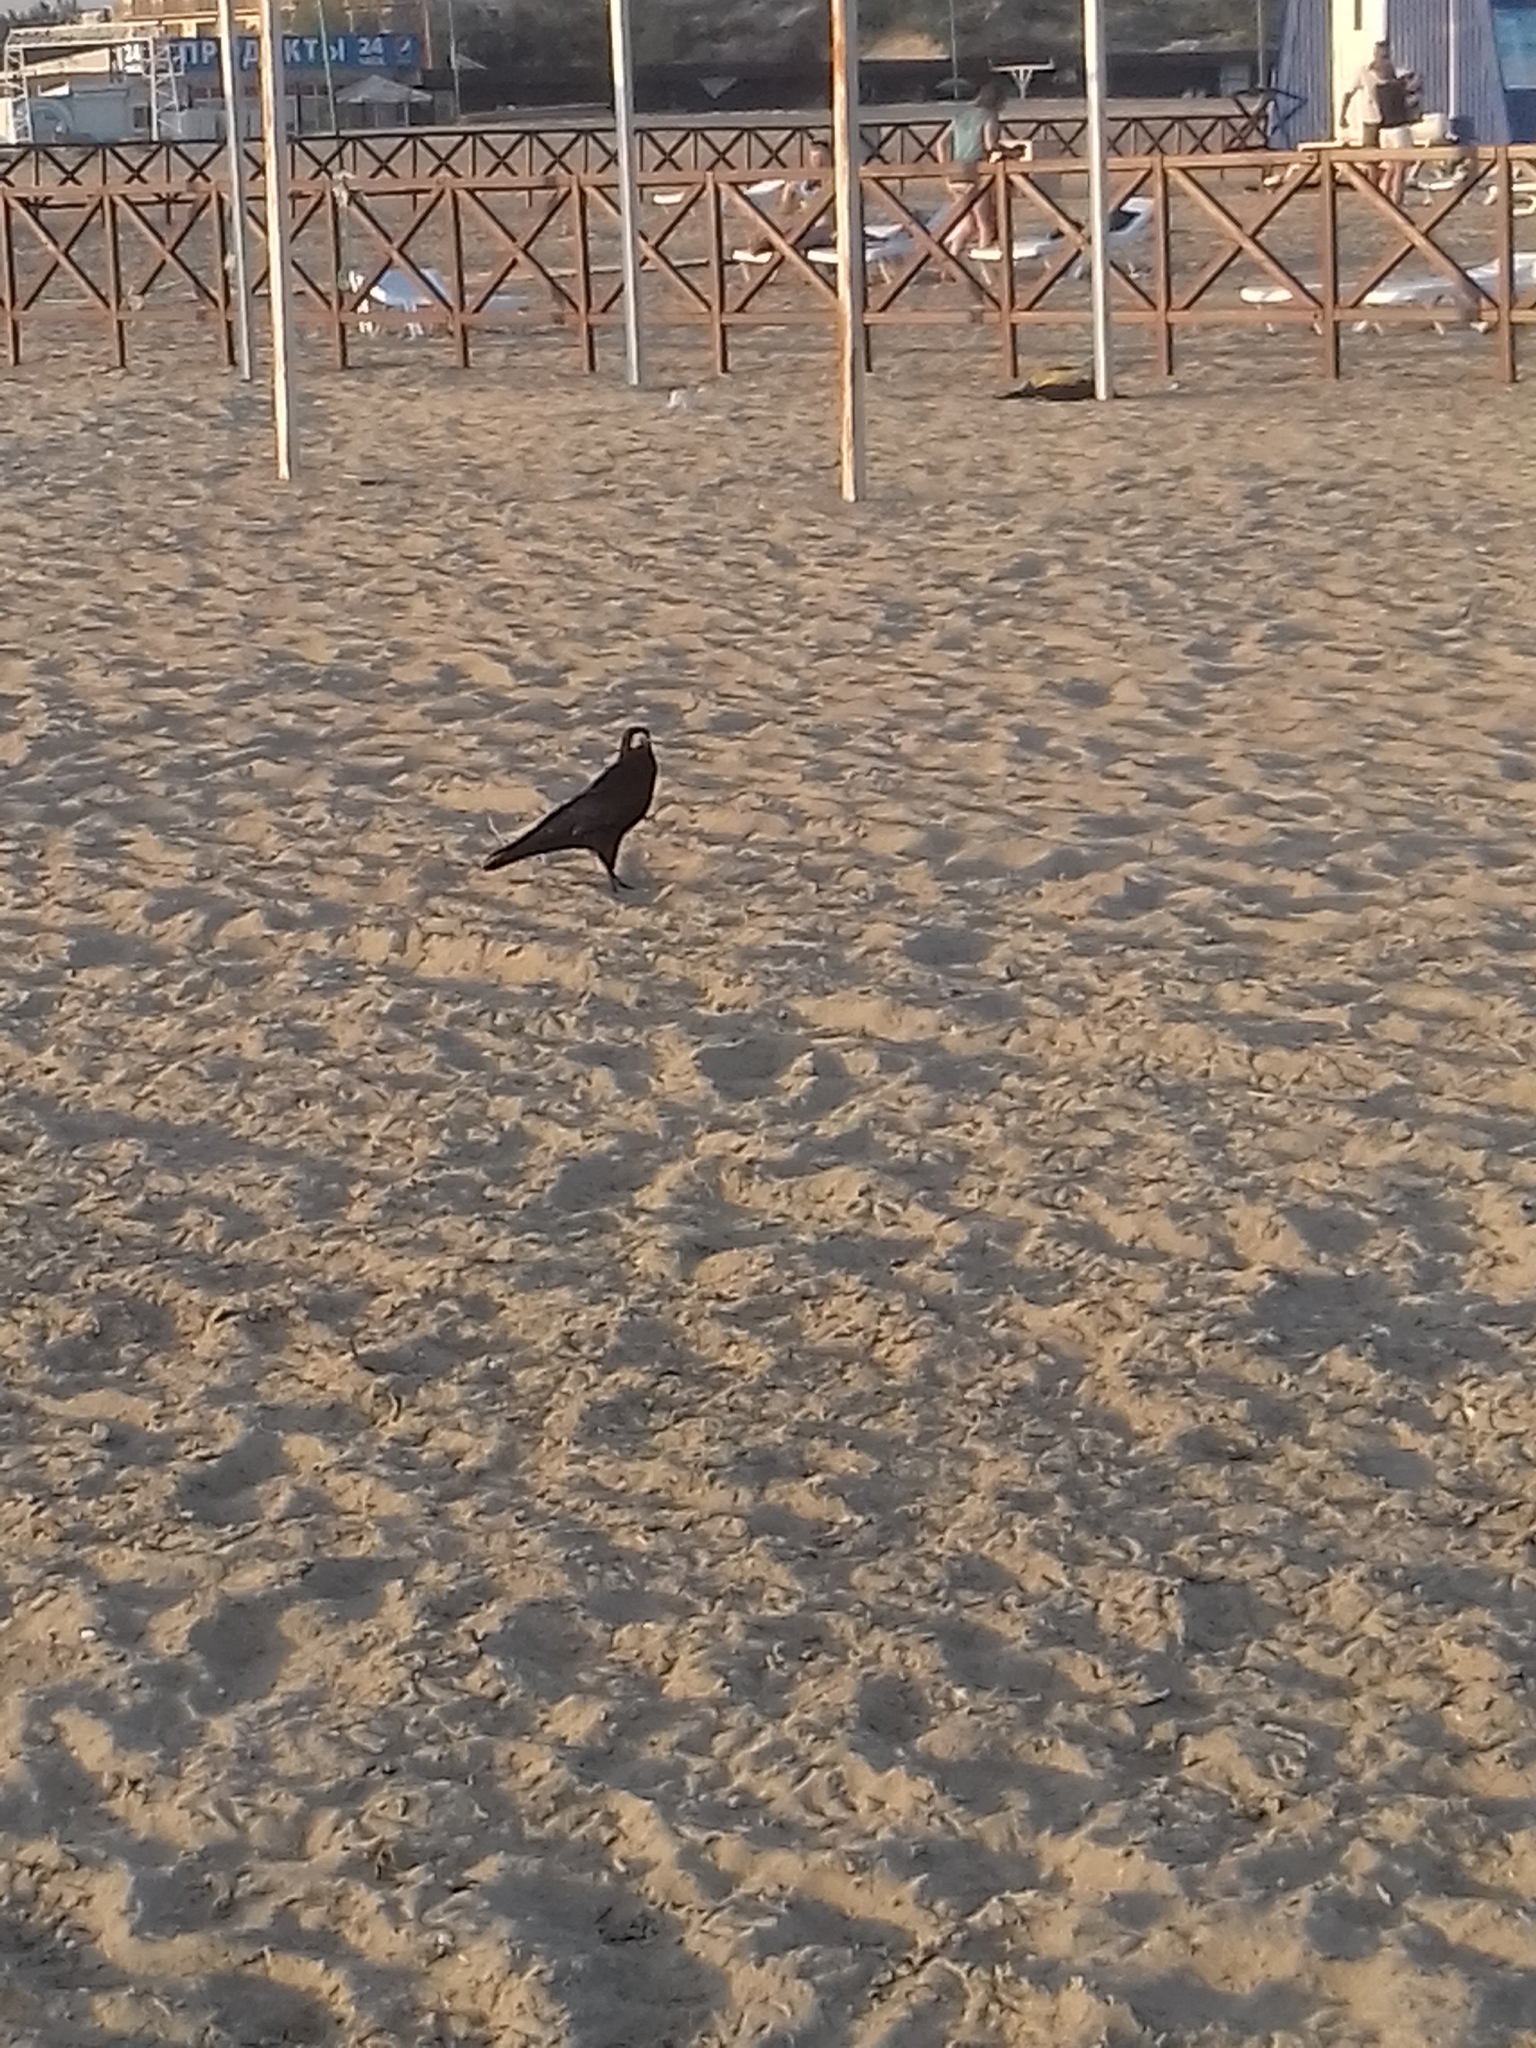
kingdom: Animalia
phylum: Chordata
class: Aves
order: Passeriformes
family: Corvidae
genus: Corvus
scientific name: Corvus frugilegus
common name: Rook
